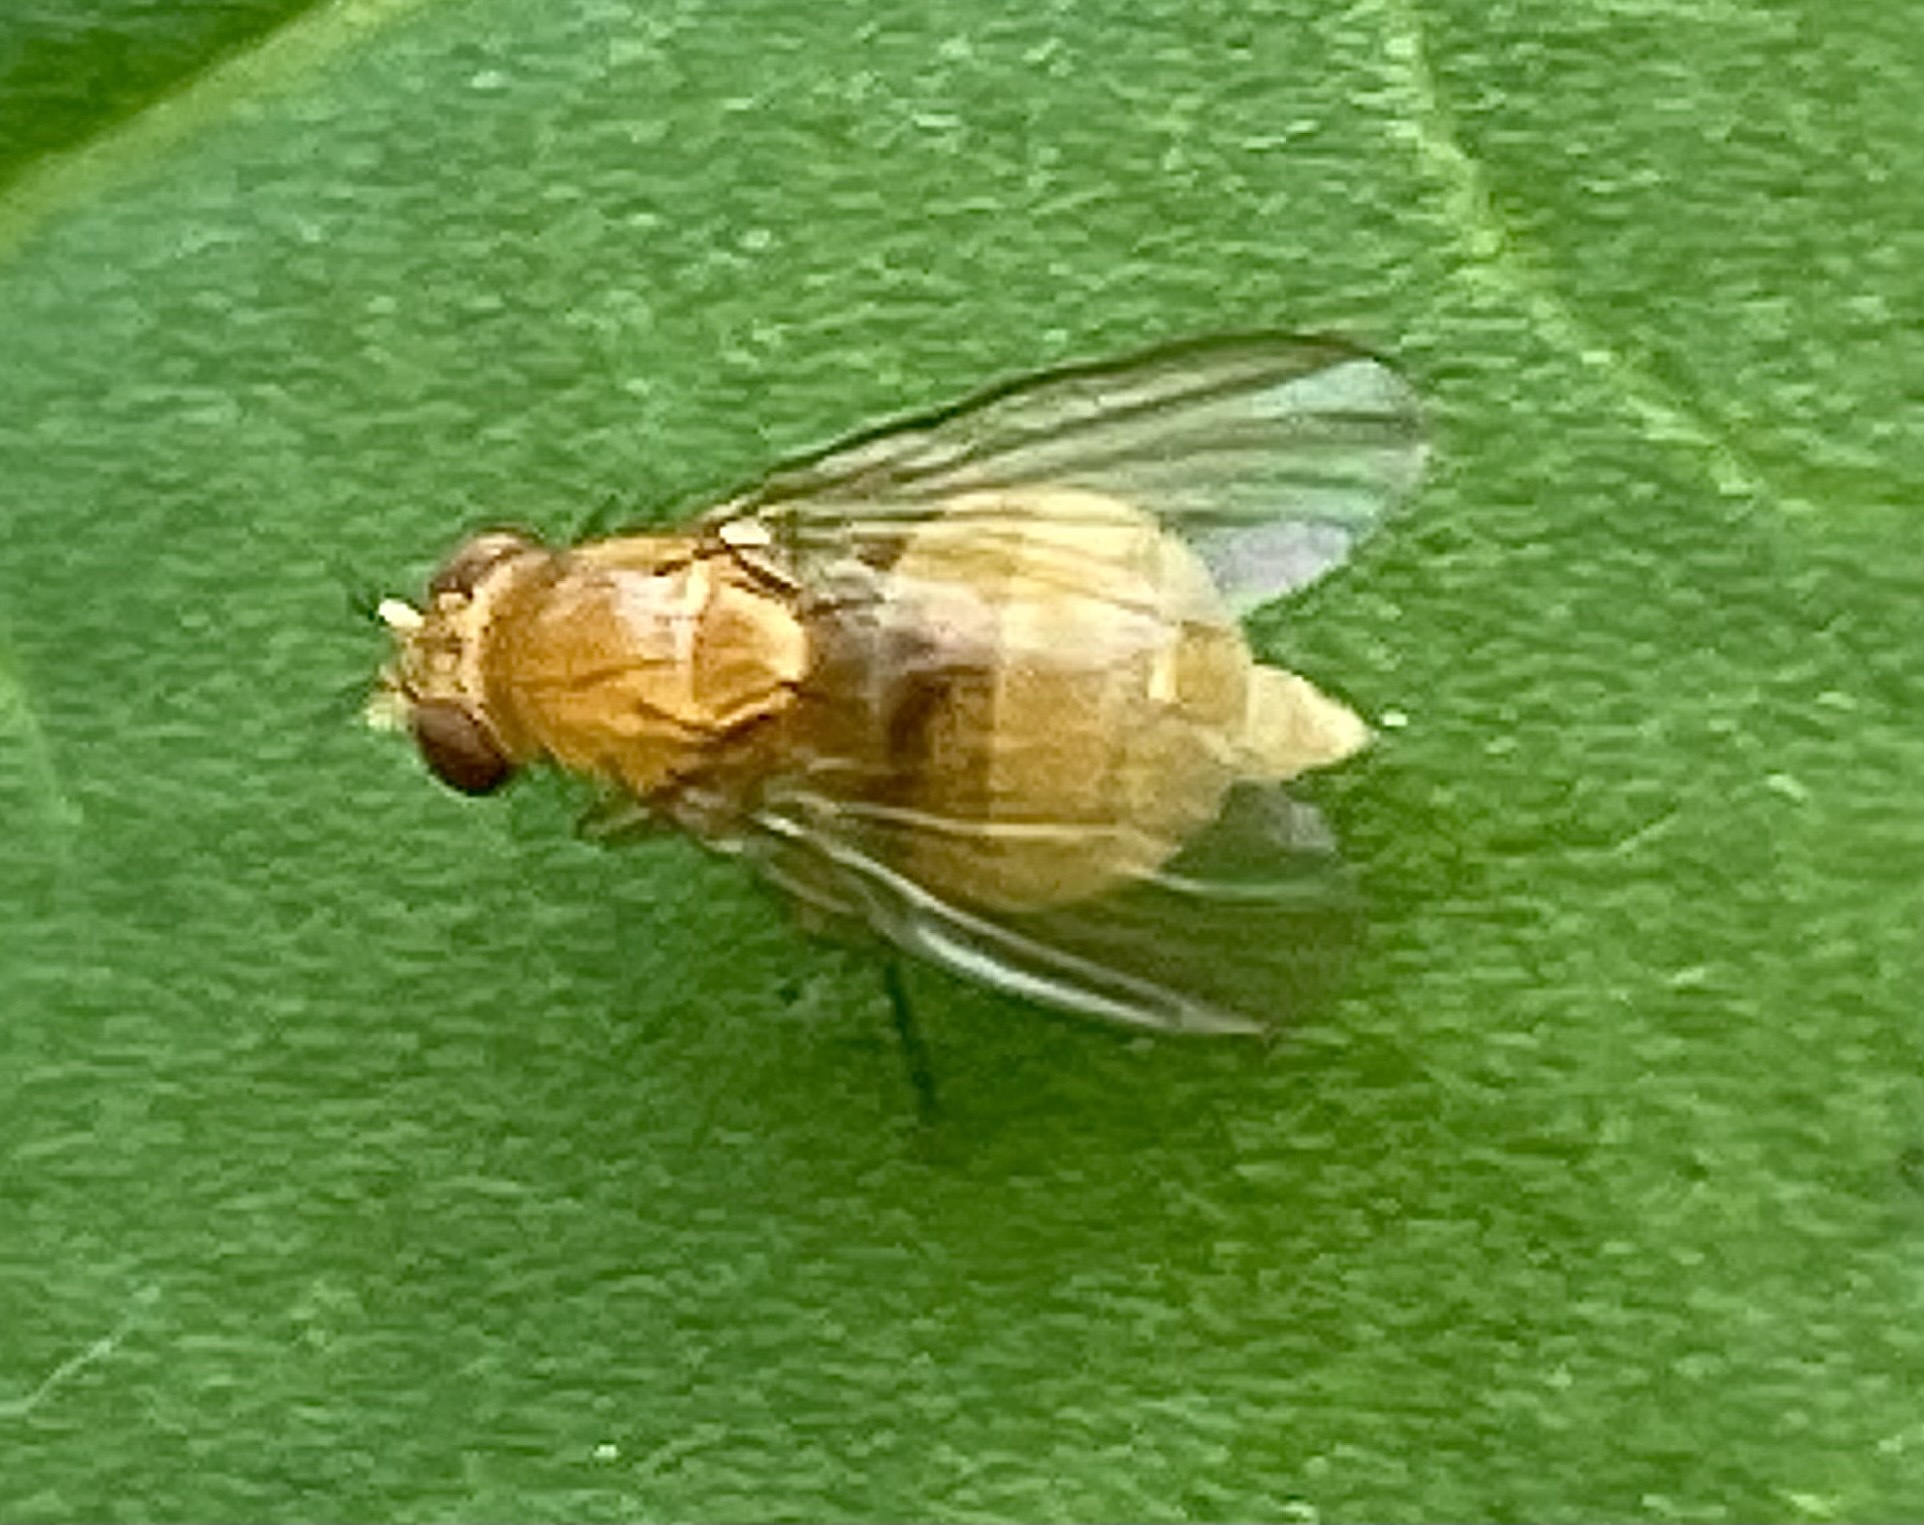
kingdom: Animalia
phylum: Arthropoda
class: Insecta
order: Diptera
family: Lauxaniidae
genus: Neogriphoneura
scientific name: Neogriphoneura sordida
